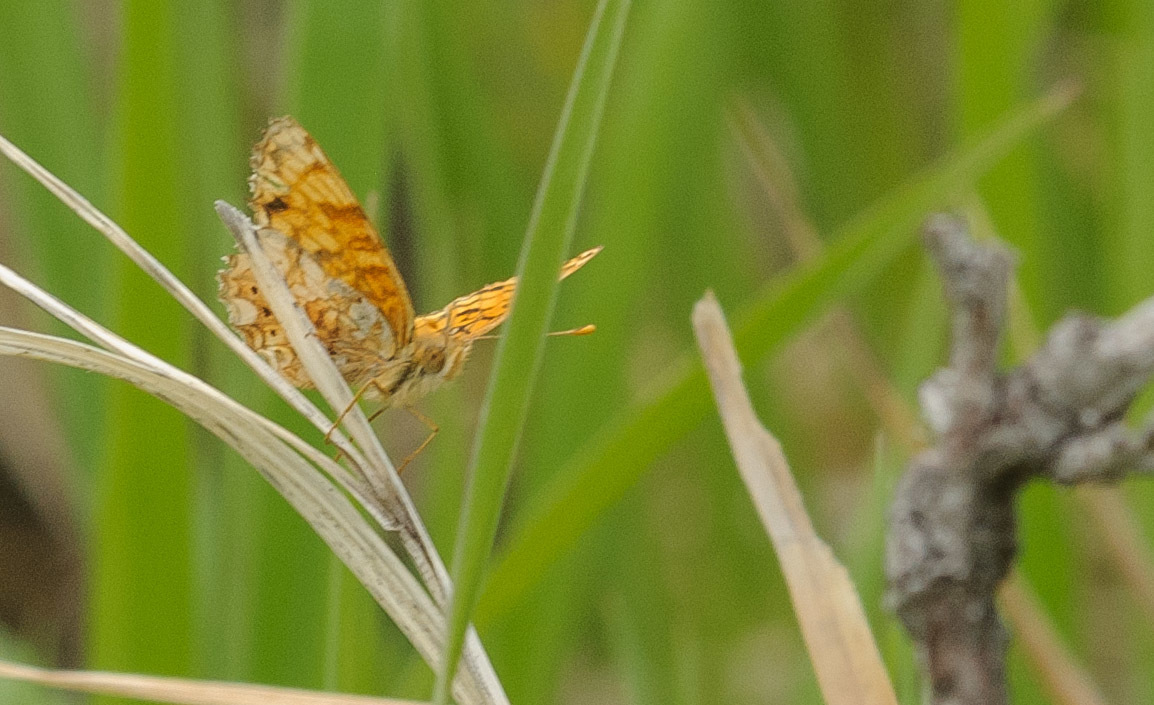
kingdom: Animalia
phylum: Arthropoda
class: Insecta
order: Lepidoptera
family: Nymphalidae
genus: Eresia
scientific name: Eresia aveyrona
